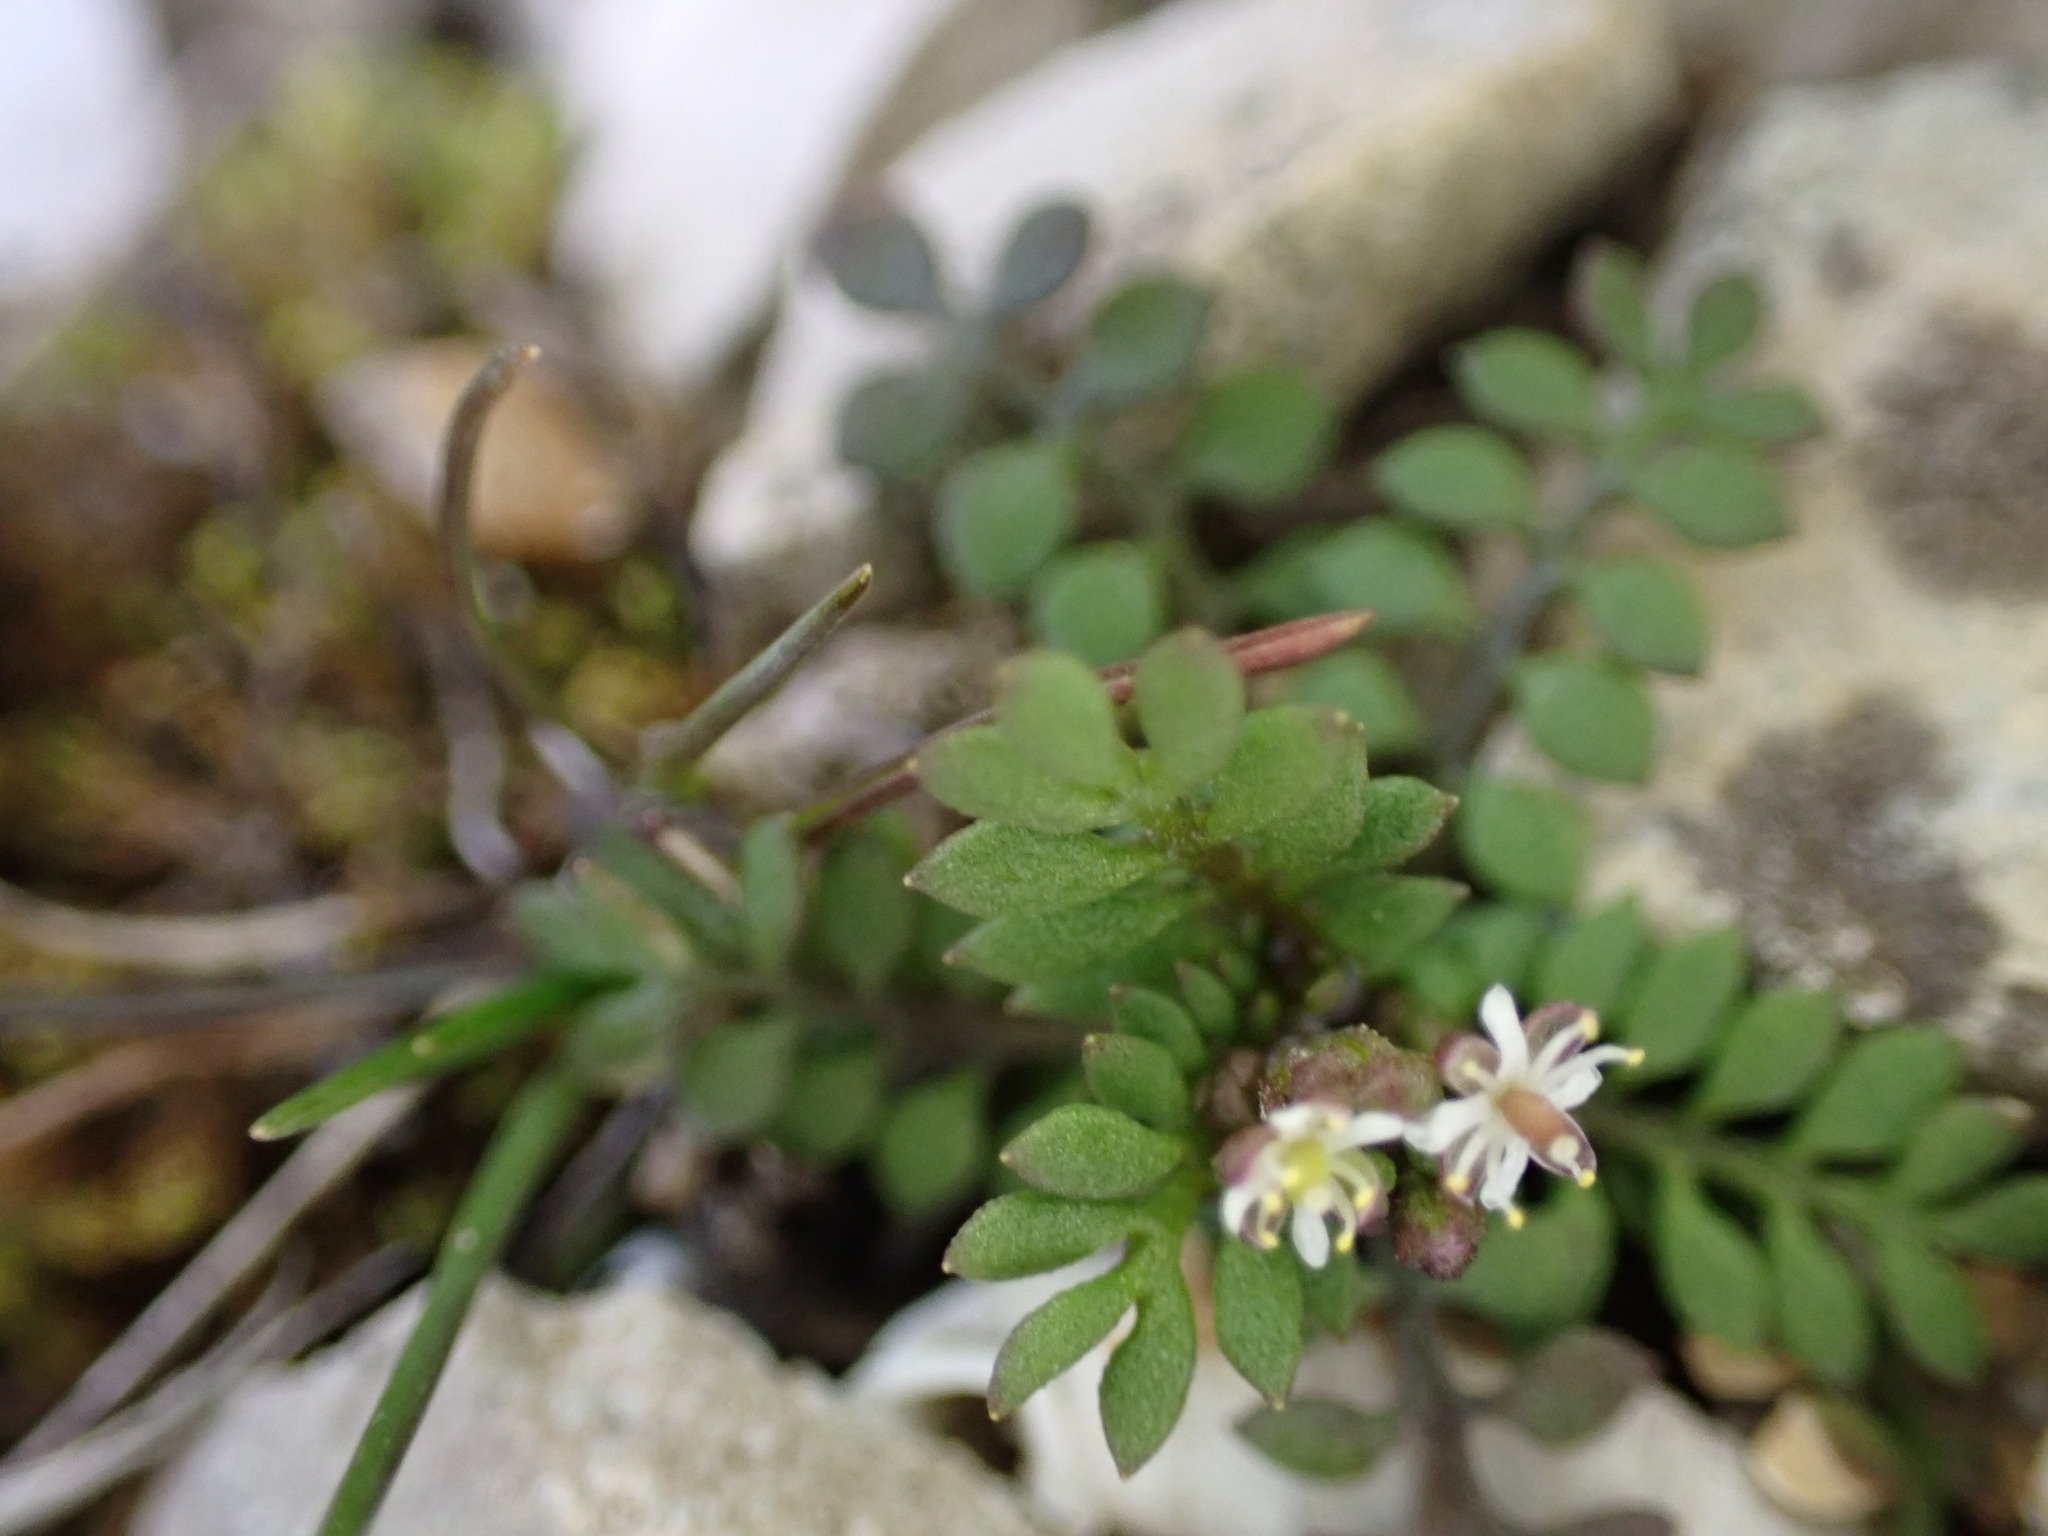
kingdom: Plantae
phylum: Tracheophyta
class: Magnoliopsida
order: Brassicales
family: Brassicaceae
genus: Hornungia
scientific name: Hornungia petraea
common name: Hutchinsia
